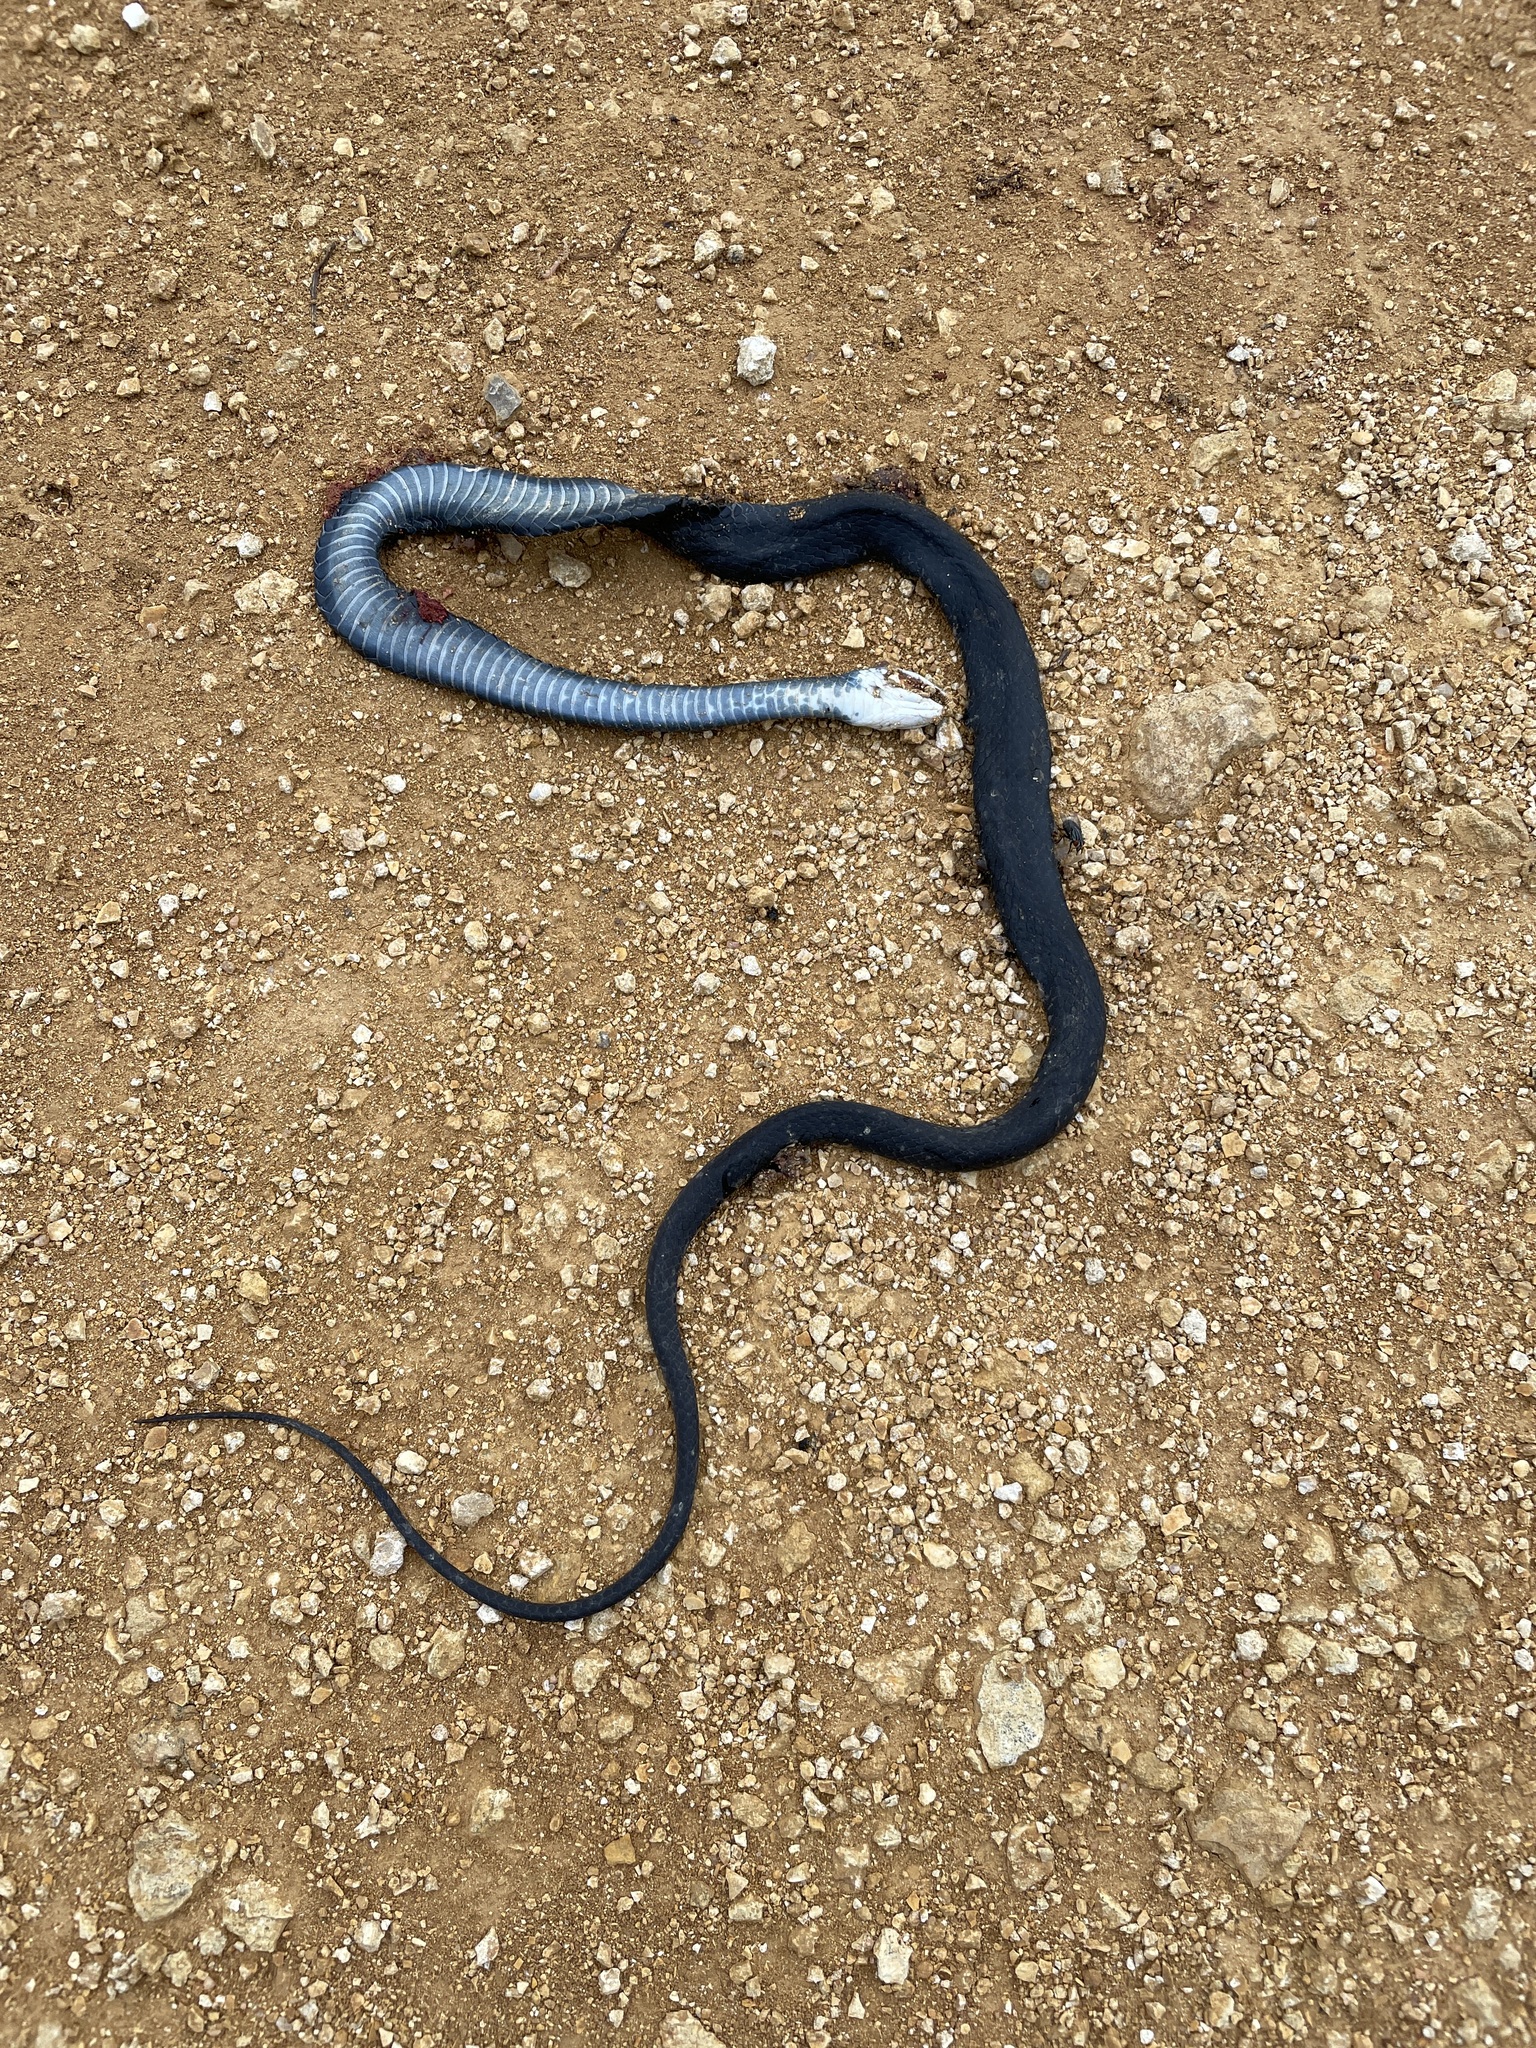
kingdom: Animalia
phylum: Chordata
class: Squamata
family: Colubridae
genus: Coluber
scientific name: Coluber constrictor
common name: Eastern racer
